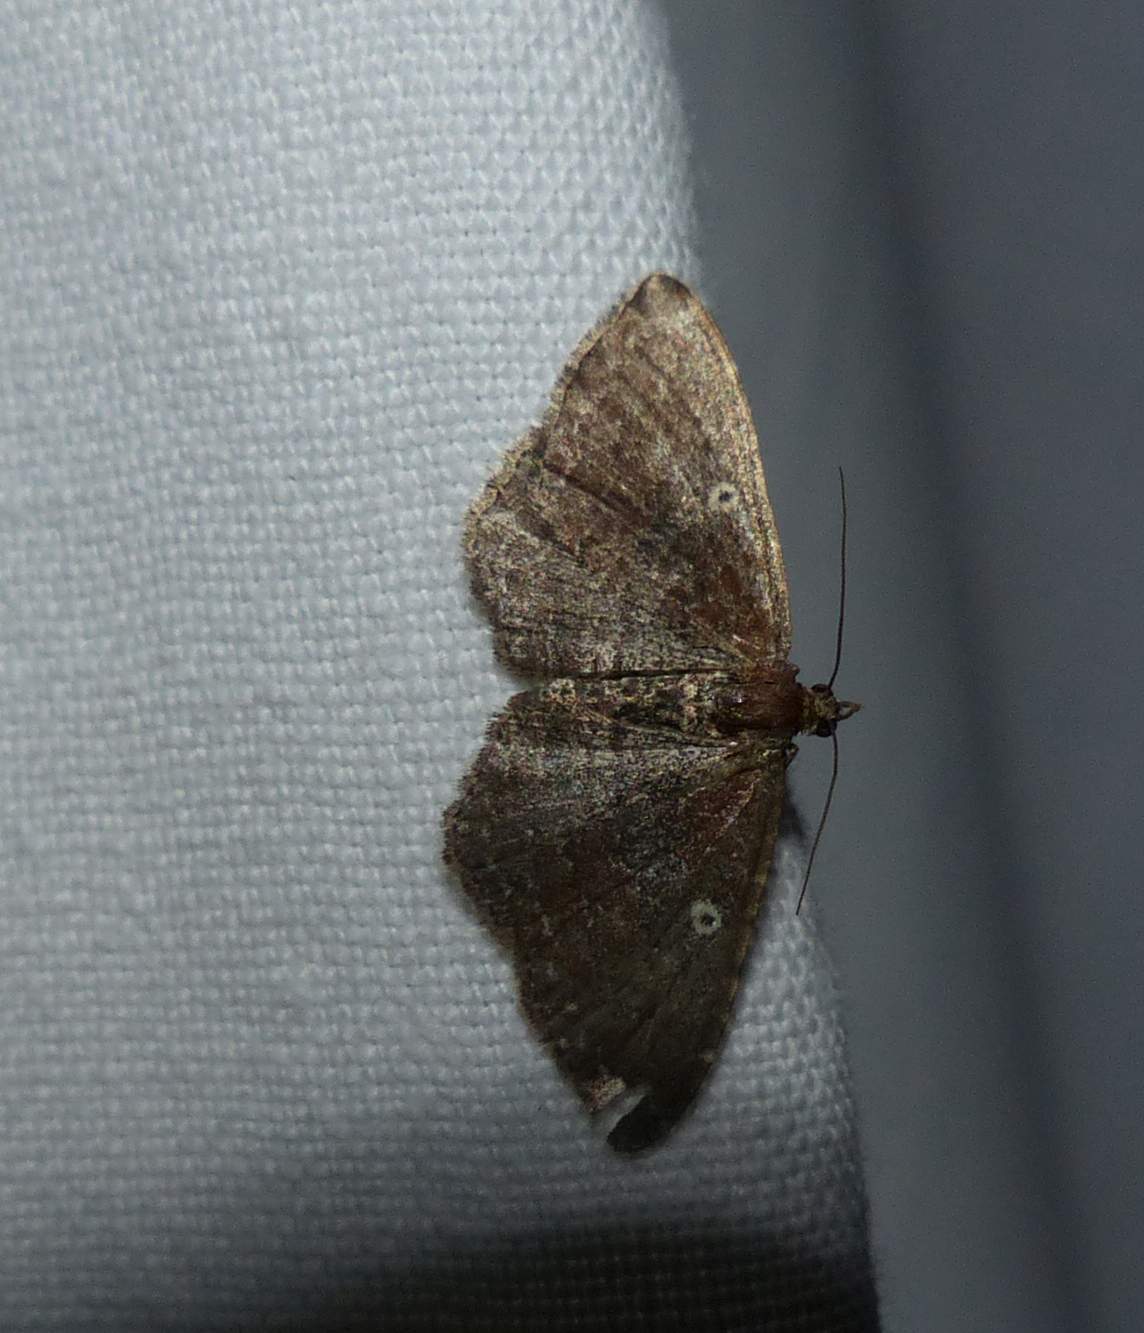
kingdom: Animalia
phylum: Arthropoda
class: Insecta
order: Lepidoptera
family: Geometridae
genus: Orthonama
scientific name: Orthonama obstipata
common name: The gem
